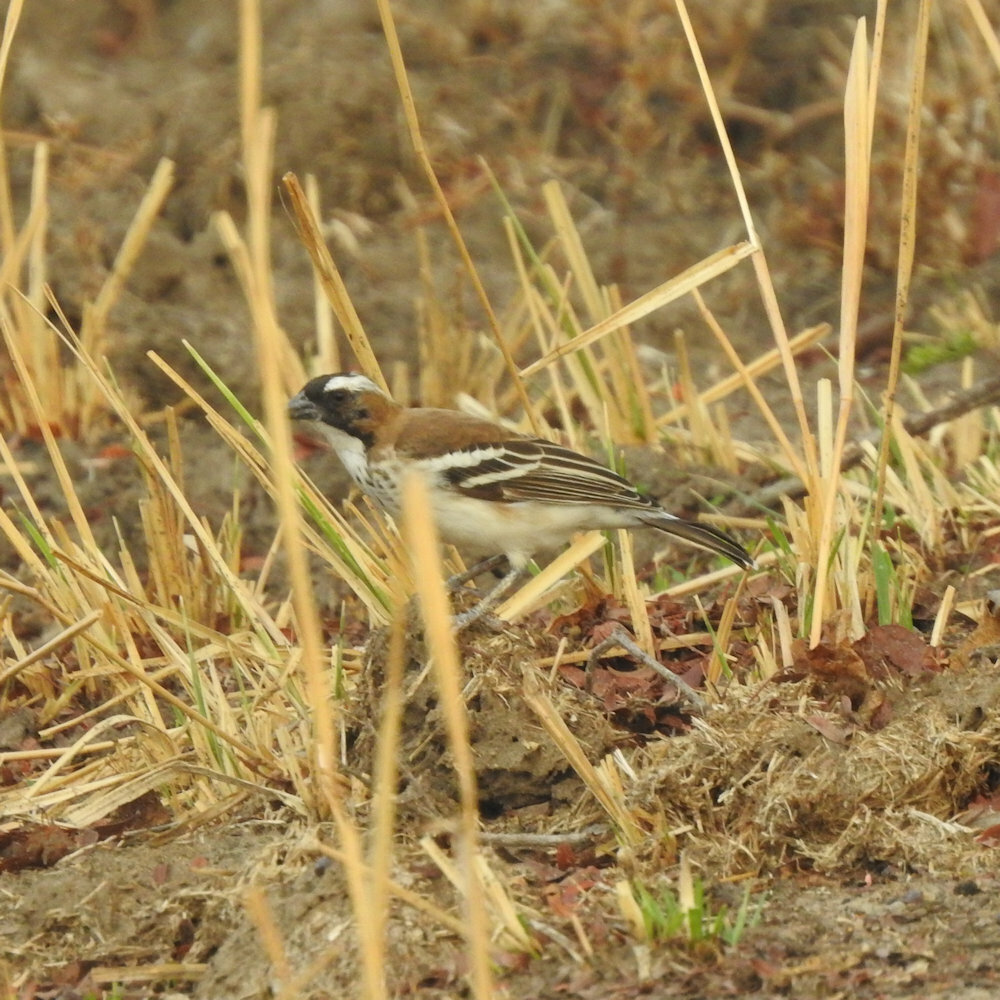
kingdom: Animalia
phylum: Chordata
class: Aves
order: Passeriformes
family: Passeridae
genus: Plocepasser
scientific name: Plocepasser mahali
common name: White-browed sparrow-weaver
